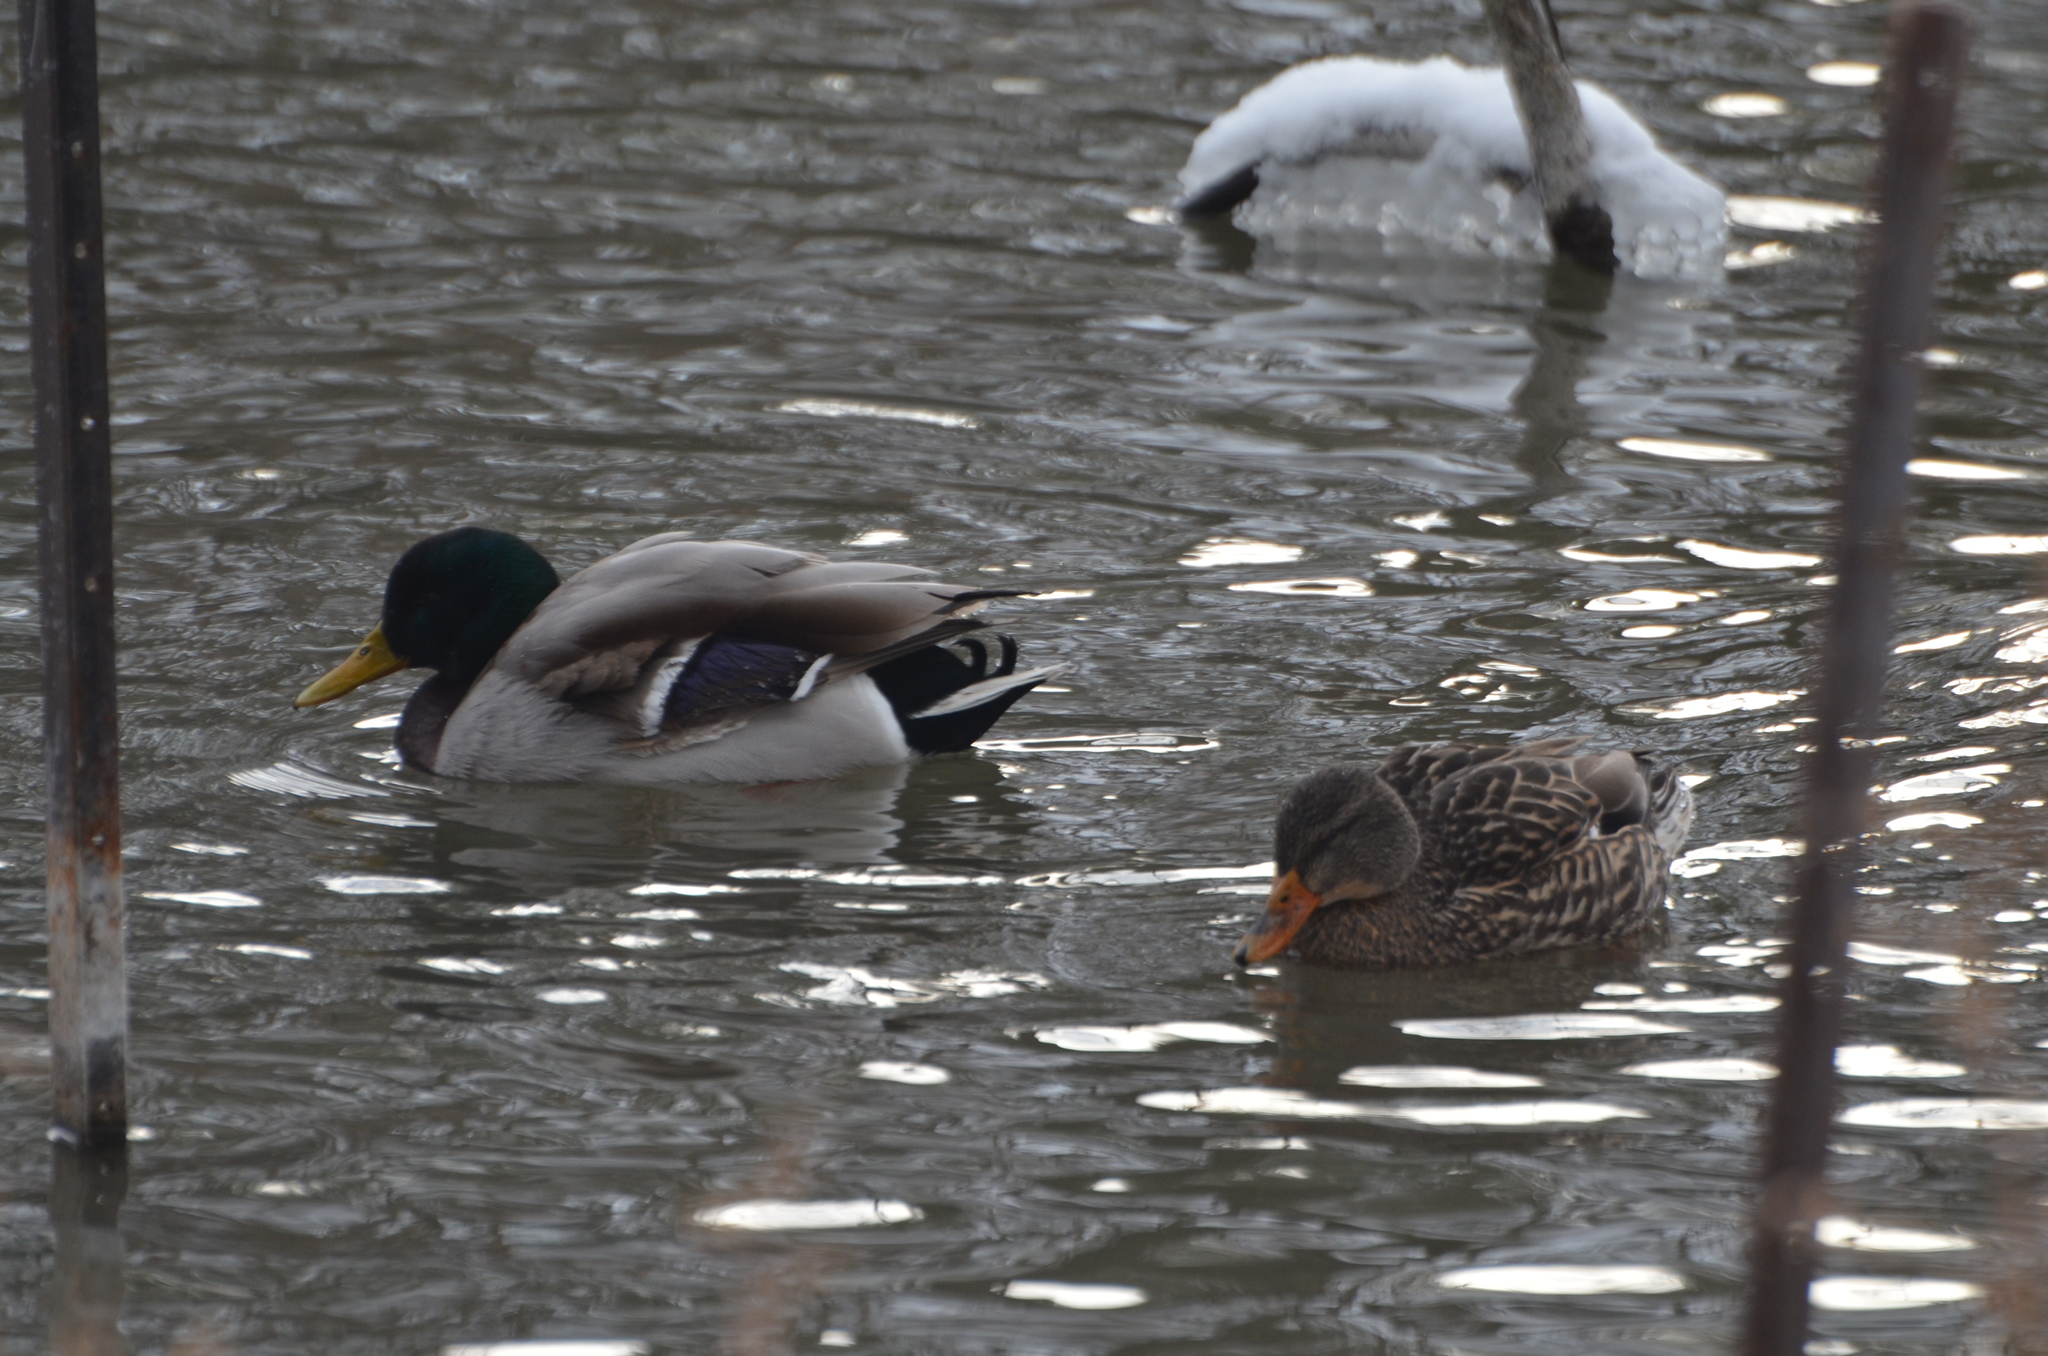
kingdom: Animalia
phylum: Chordata
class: Aves
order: Anseriformes
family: Anatidae
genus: Anas
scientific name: Anas platyrhynchos
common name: Mallard
